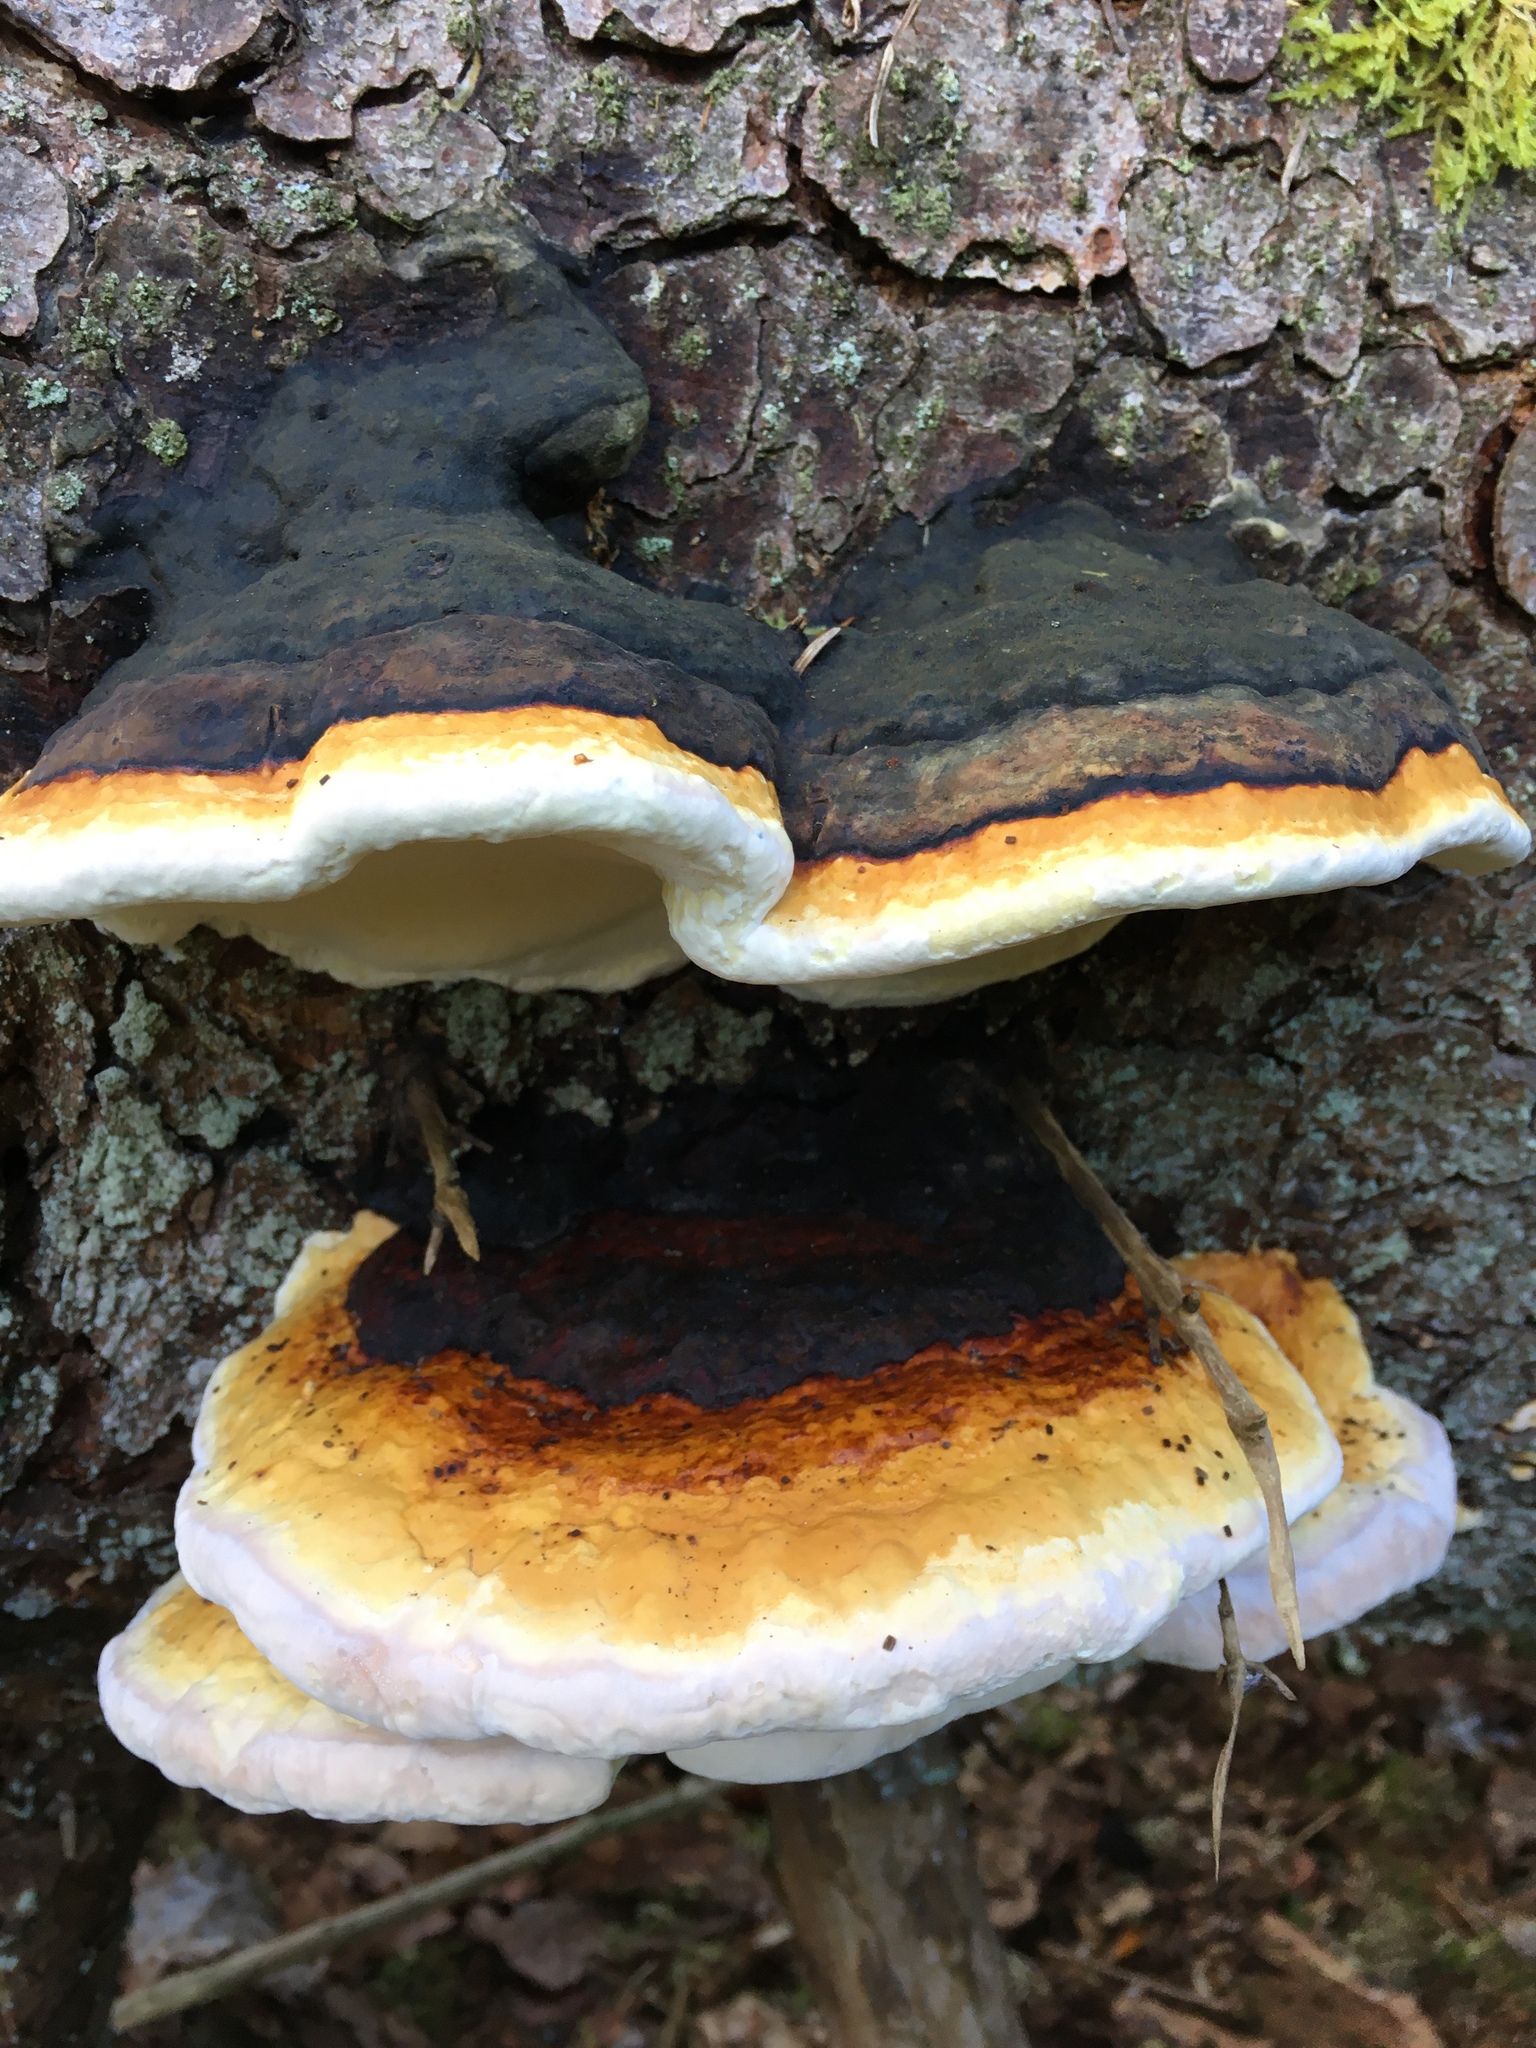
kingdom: Fungi
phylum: Basidiomycota
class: Agaricomycetes
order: Polyporales
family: Fomitopsidaceae
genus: Fomitopsis
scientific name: Fomitopsis pinicola
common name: Red-belted bracket
